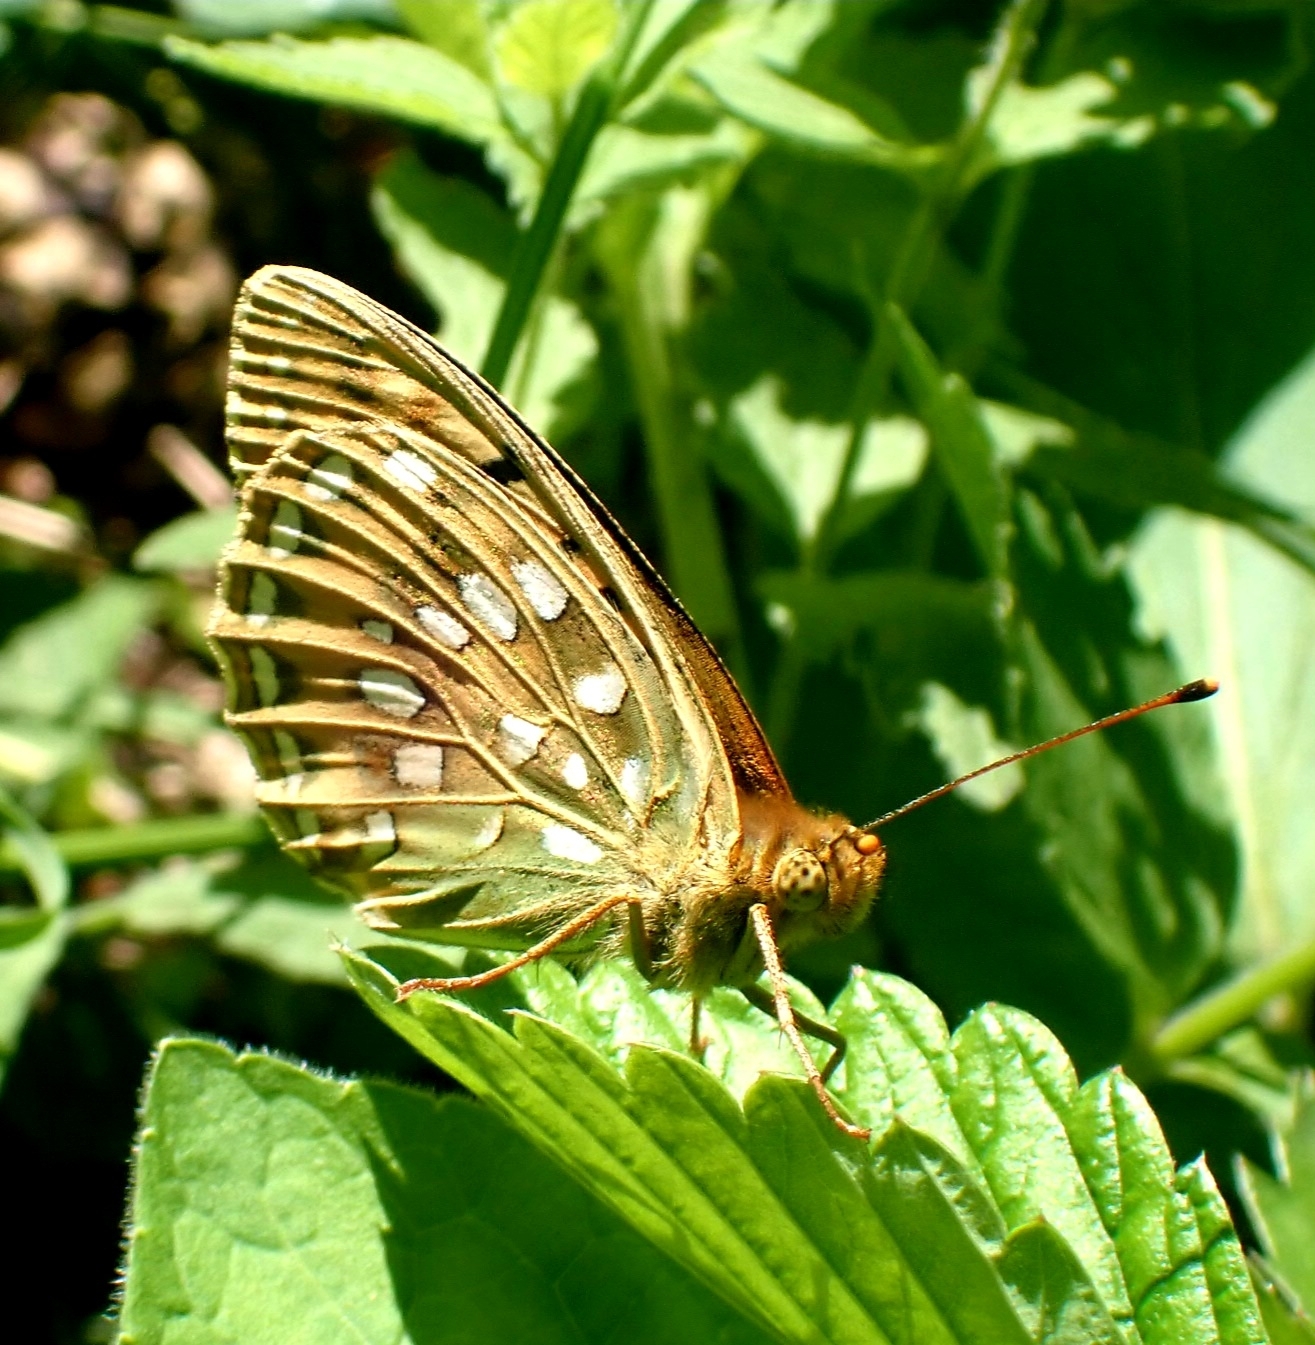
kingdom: Animalia
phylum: Arthropoda
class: Insecta
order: Lepidoptera
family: Nymphalidae
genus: Speyeria
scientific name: Speyeria aglaja
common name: Dark green fritillary
